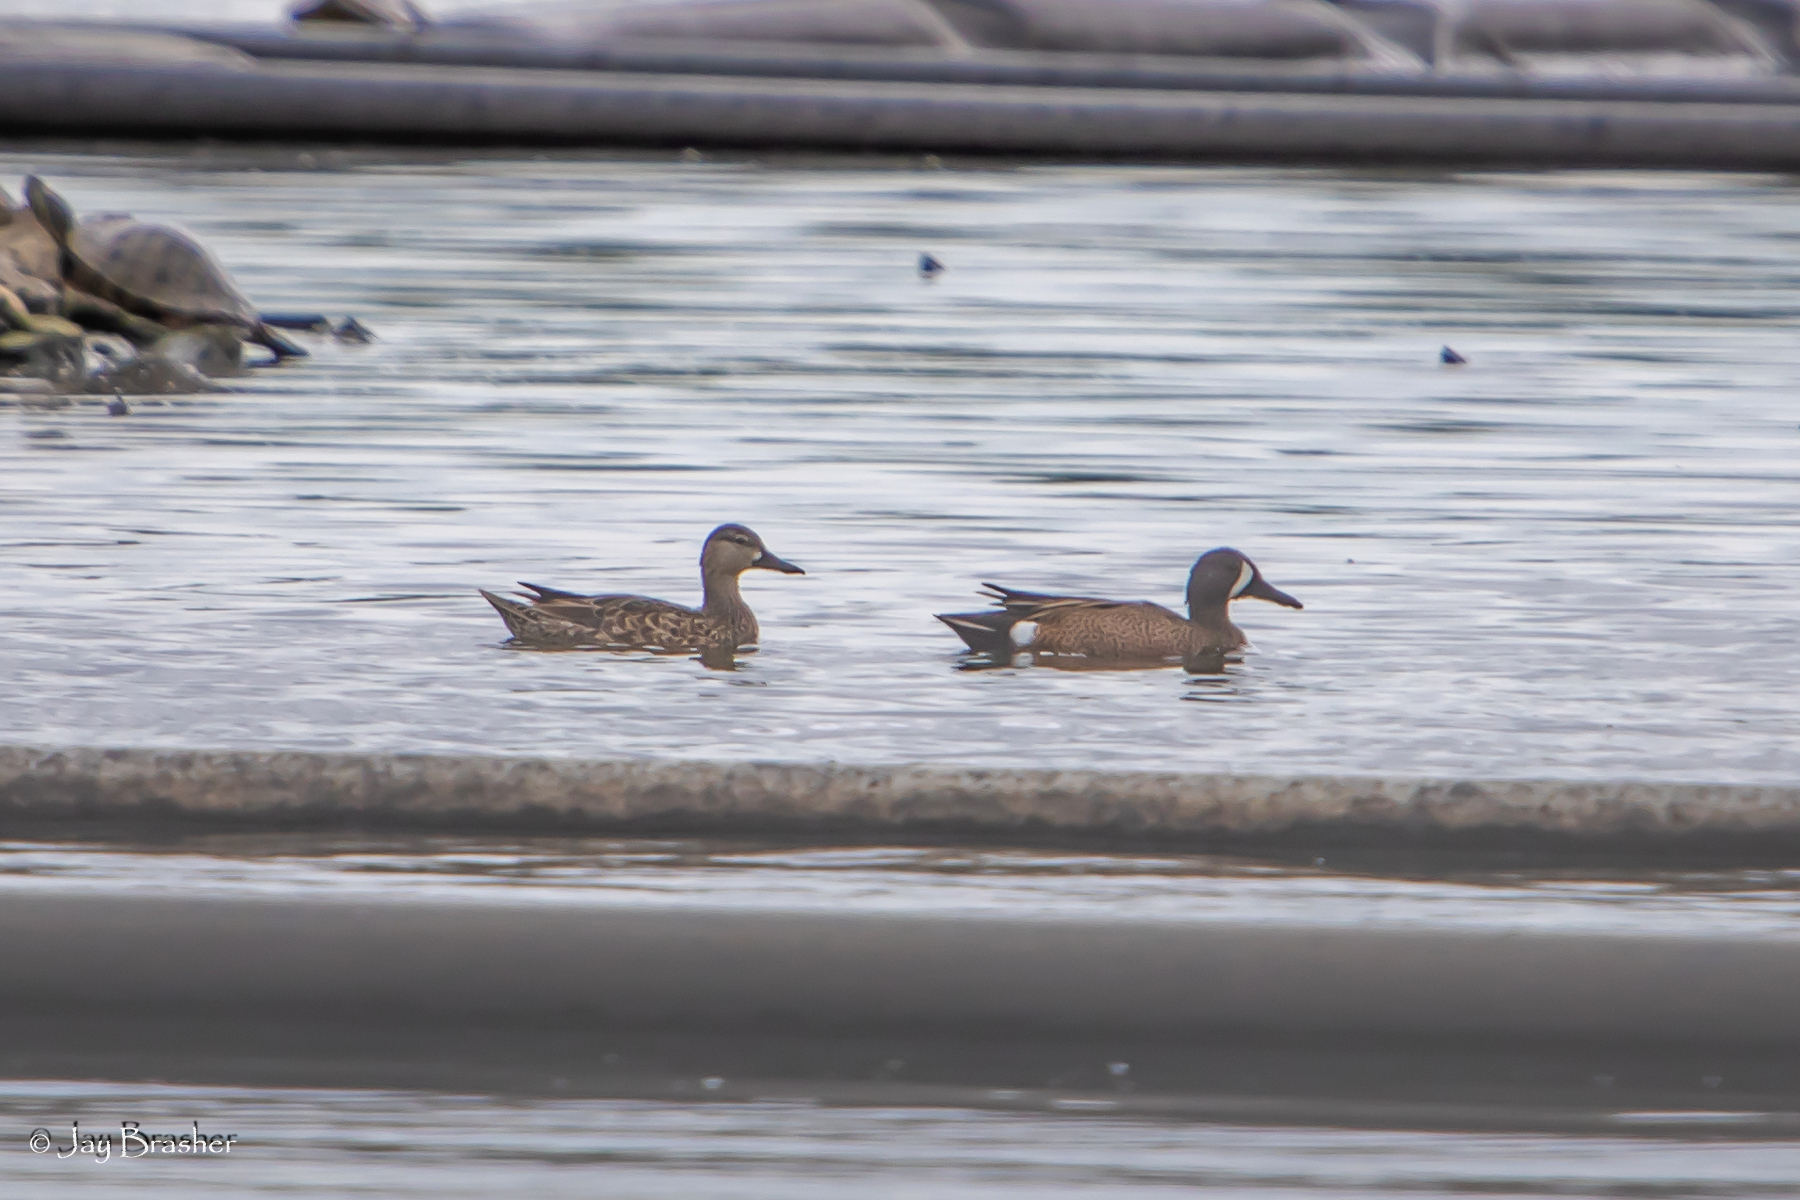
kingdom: Animalia
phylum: Chordata
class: Aves
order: Anseriformes
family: Anatidae
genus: Spatula
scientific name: Spatula discors
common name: Blue-winged teal
